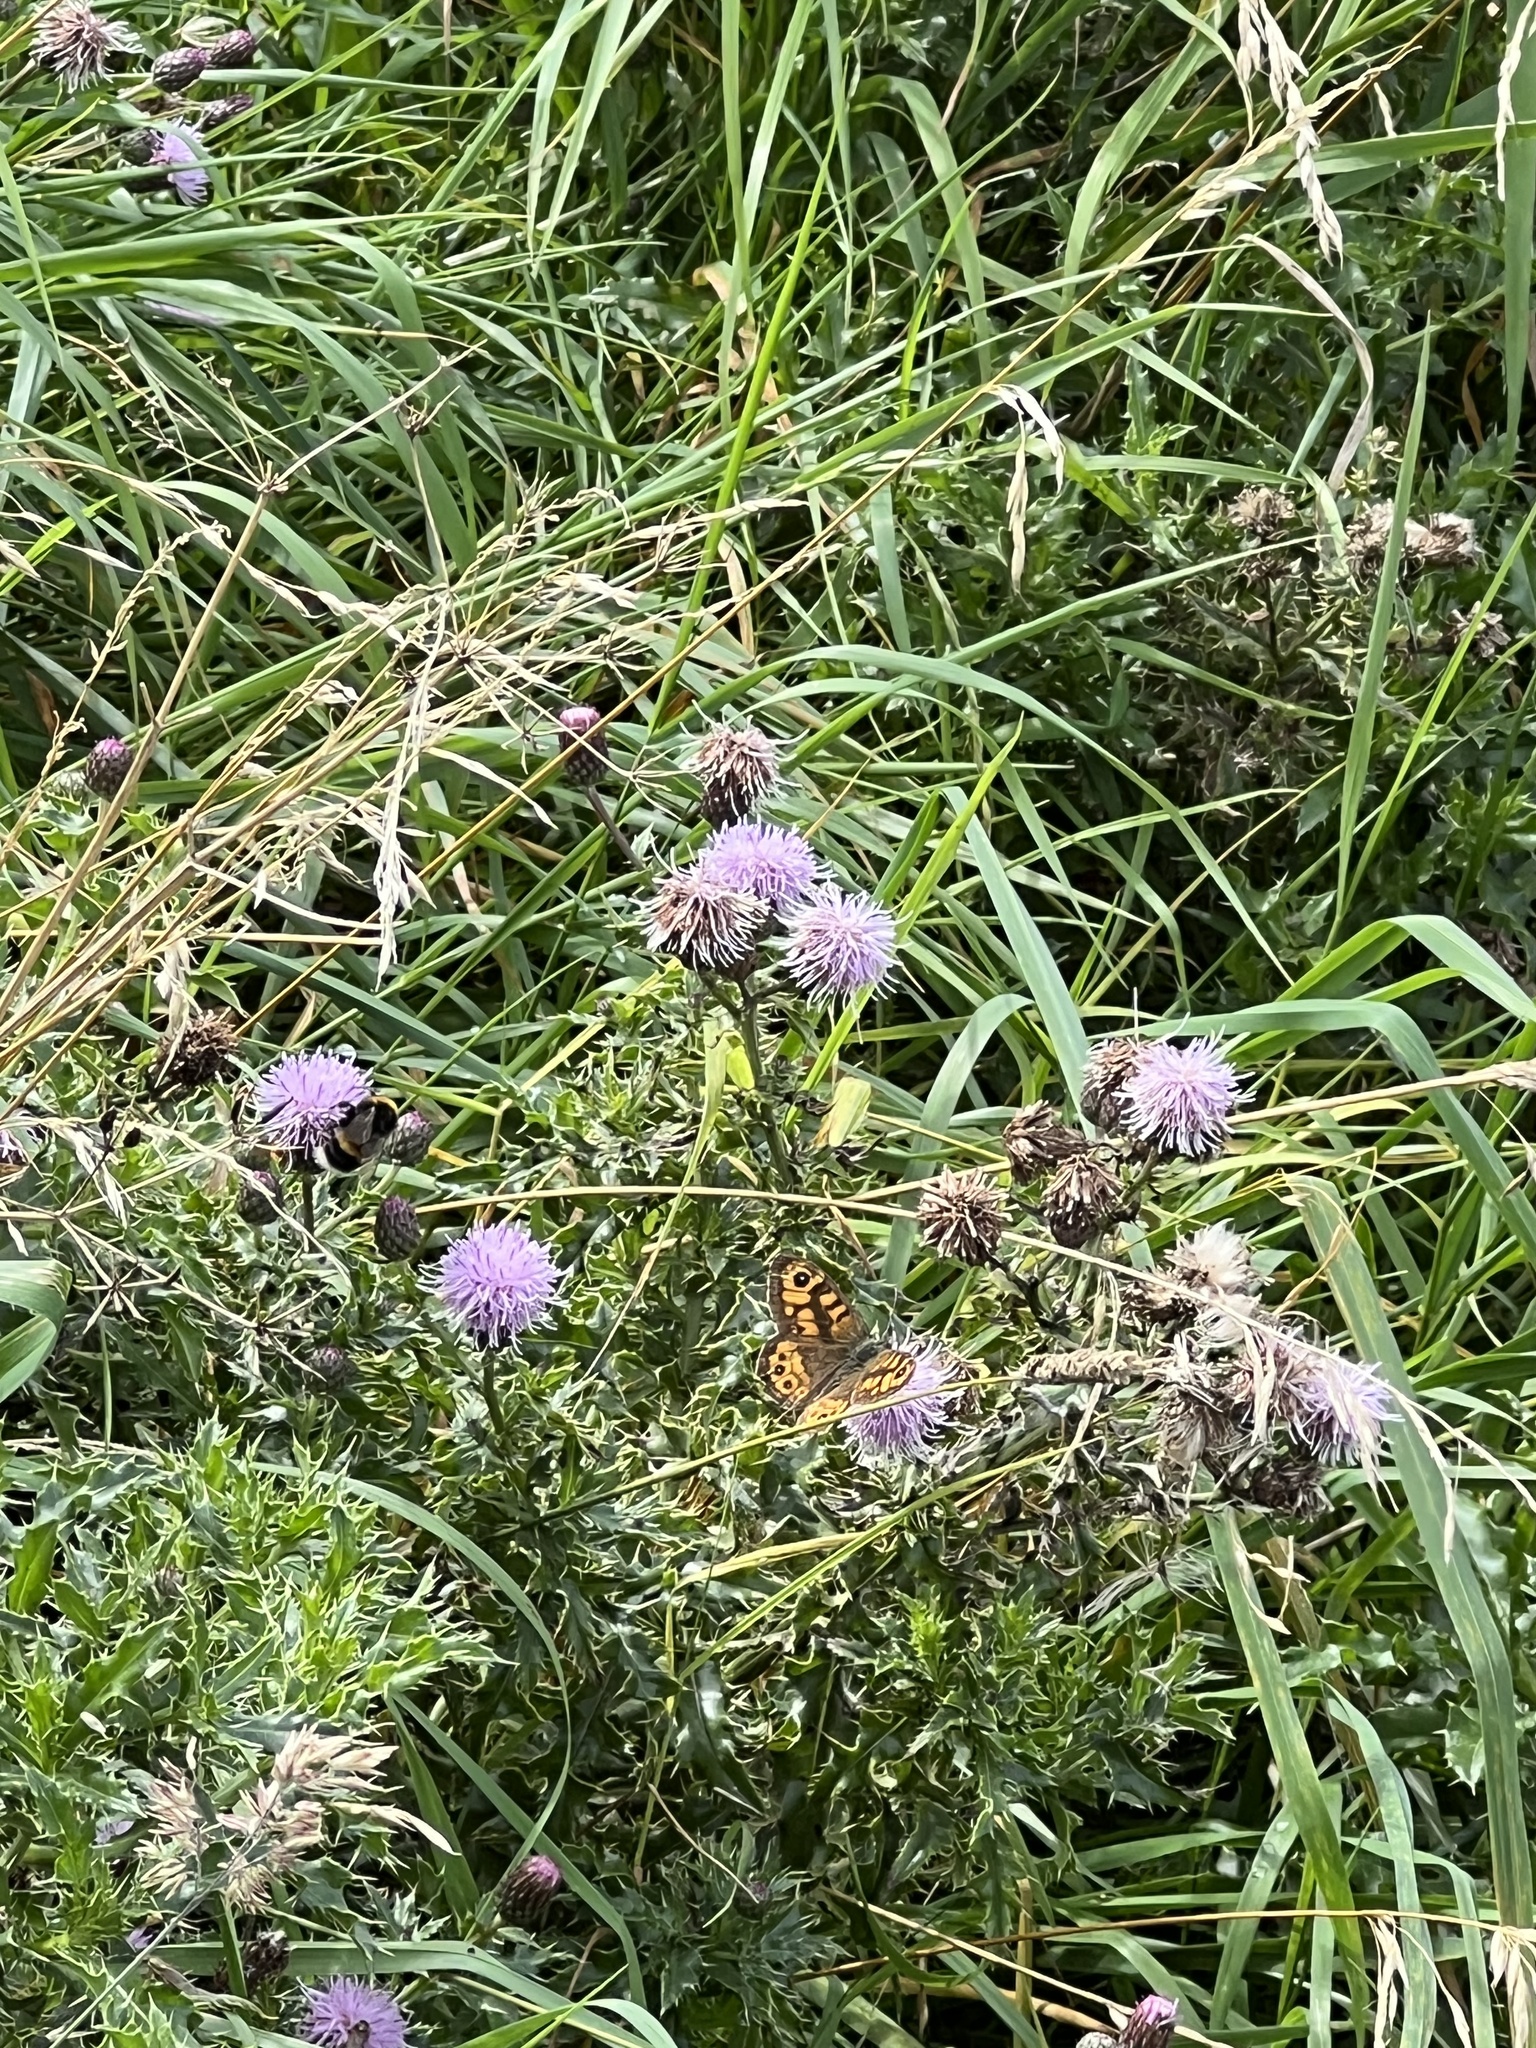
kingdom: Animalia
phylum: Arthropoda
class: Insecta
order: Lepidoptera
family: Nymphalidae
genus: Pararge
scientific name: Pararge Lasiommata megera
